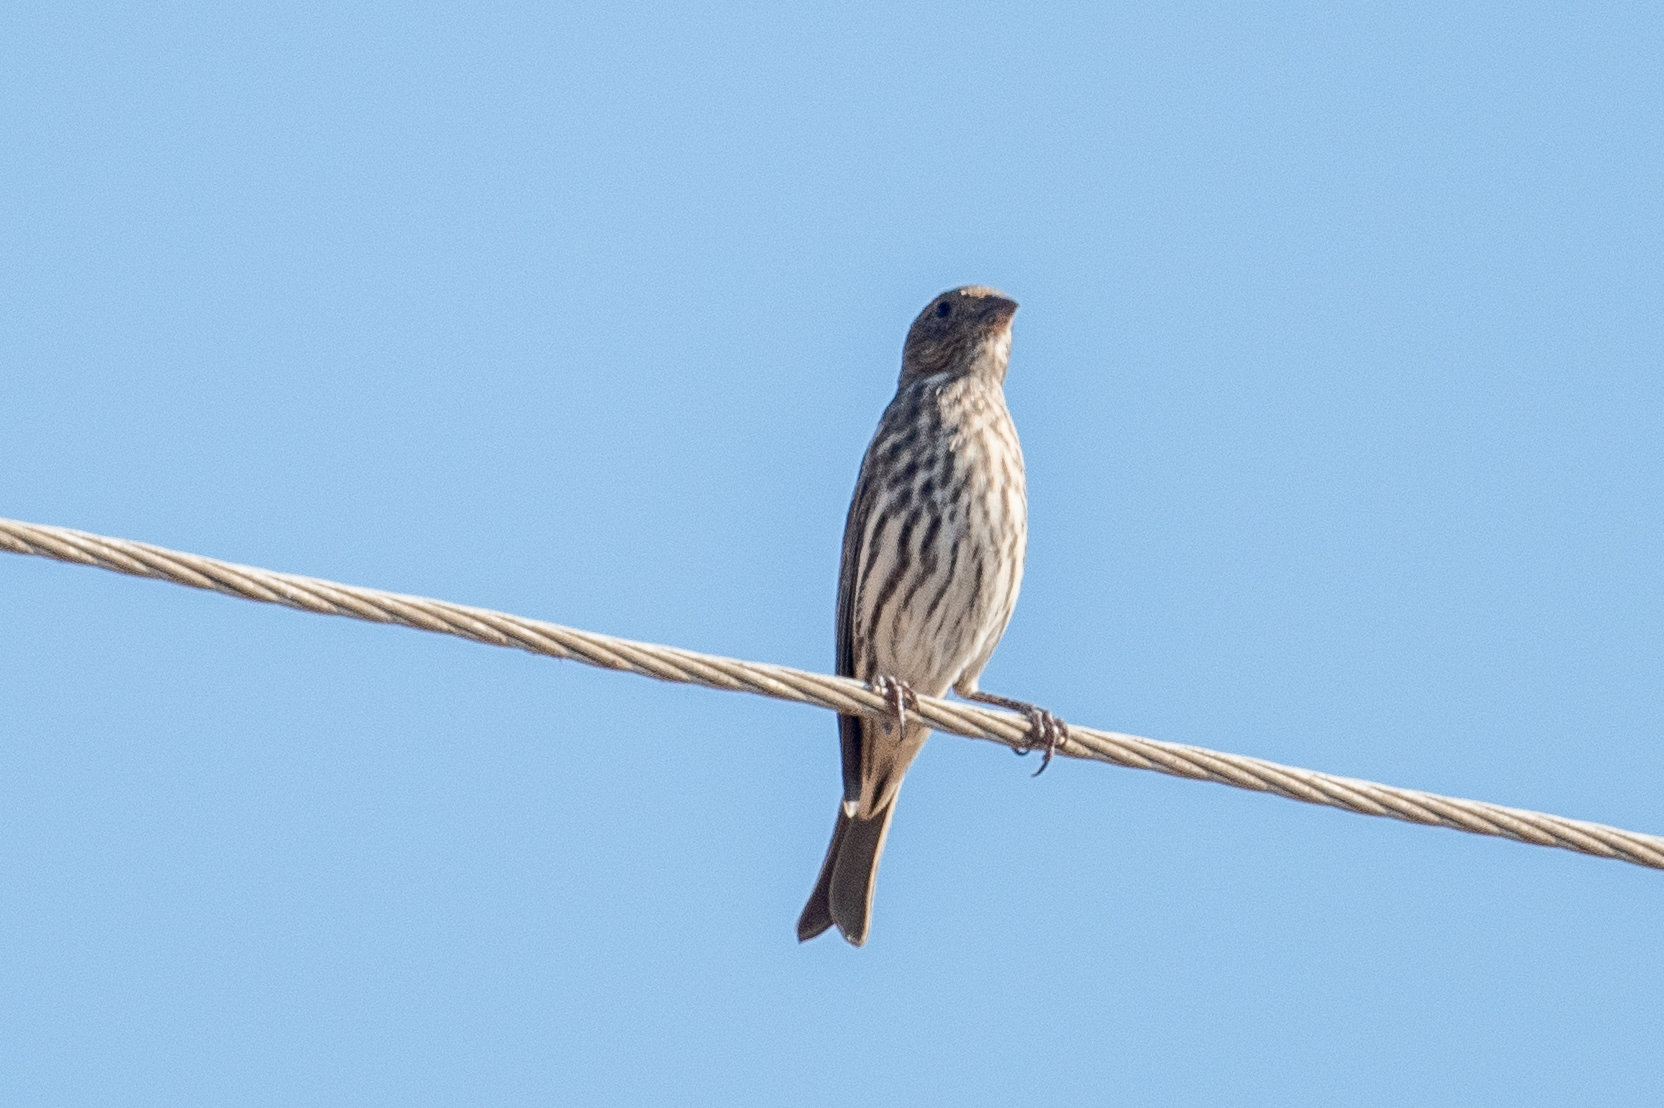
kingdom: Animalia
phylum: Chordata
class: Aves
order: Passeriformes
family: Fringillidae
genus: Haemorhous
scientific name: Haemorhous mexicanus
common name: House finch
